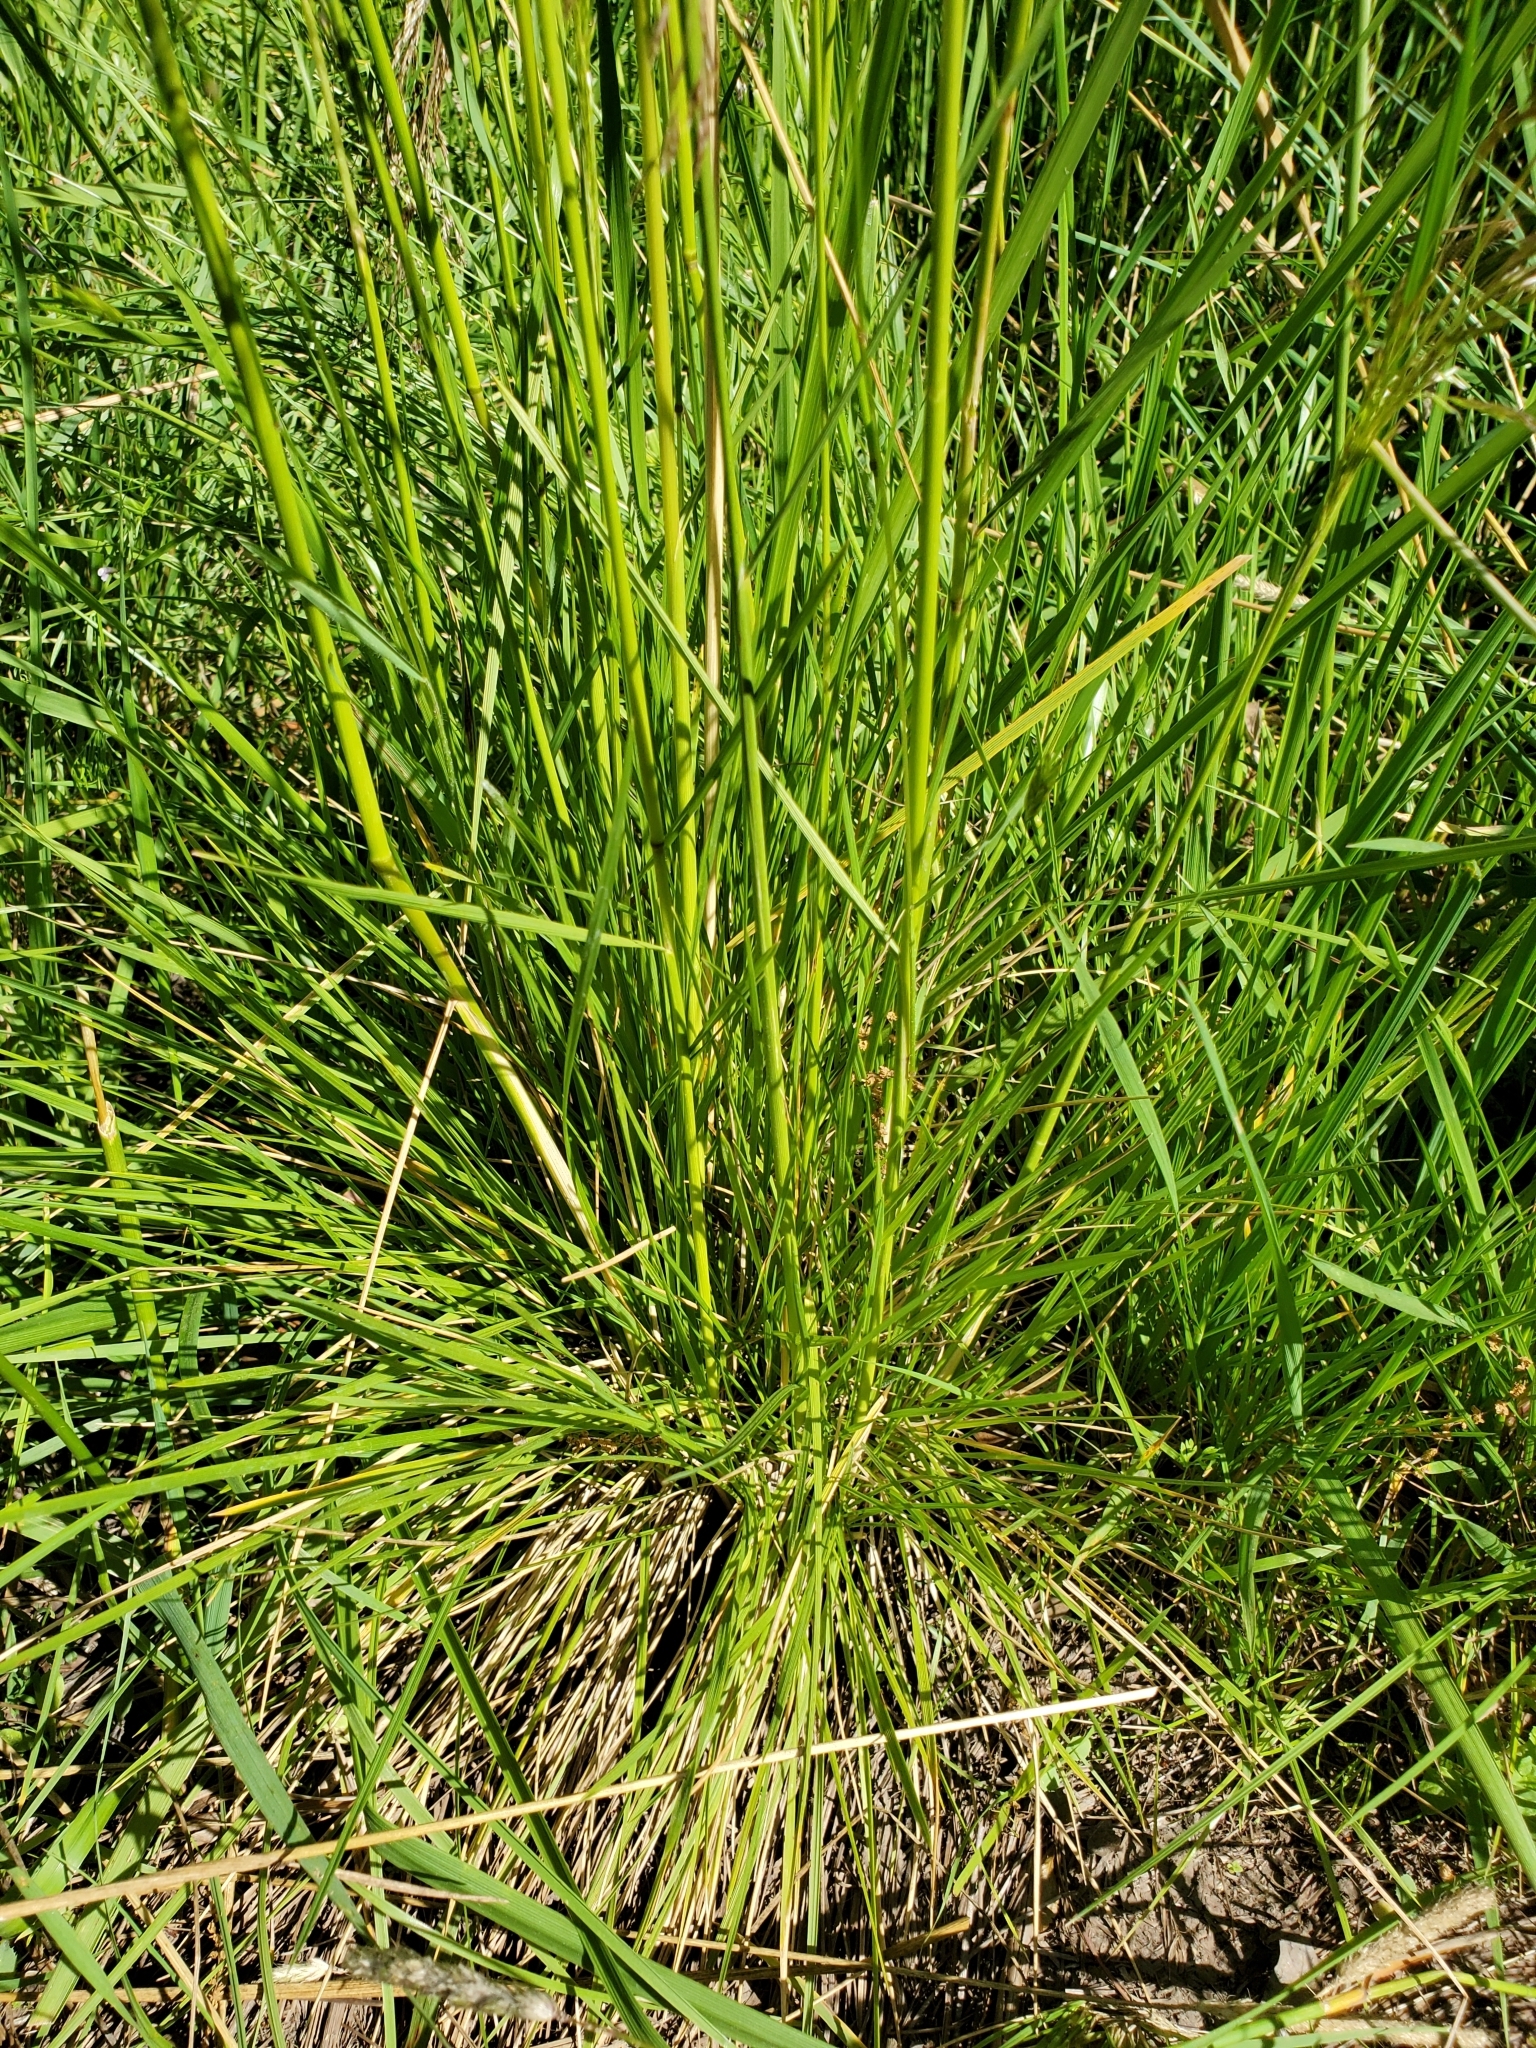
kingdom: Plantae
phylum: Tracheophyta
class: Liliopsida
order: Poales
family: Poaceae
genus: Deschampsia
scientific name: Deschampsia cespitosa
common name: Tufted hair-grass
